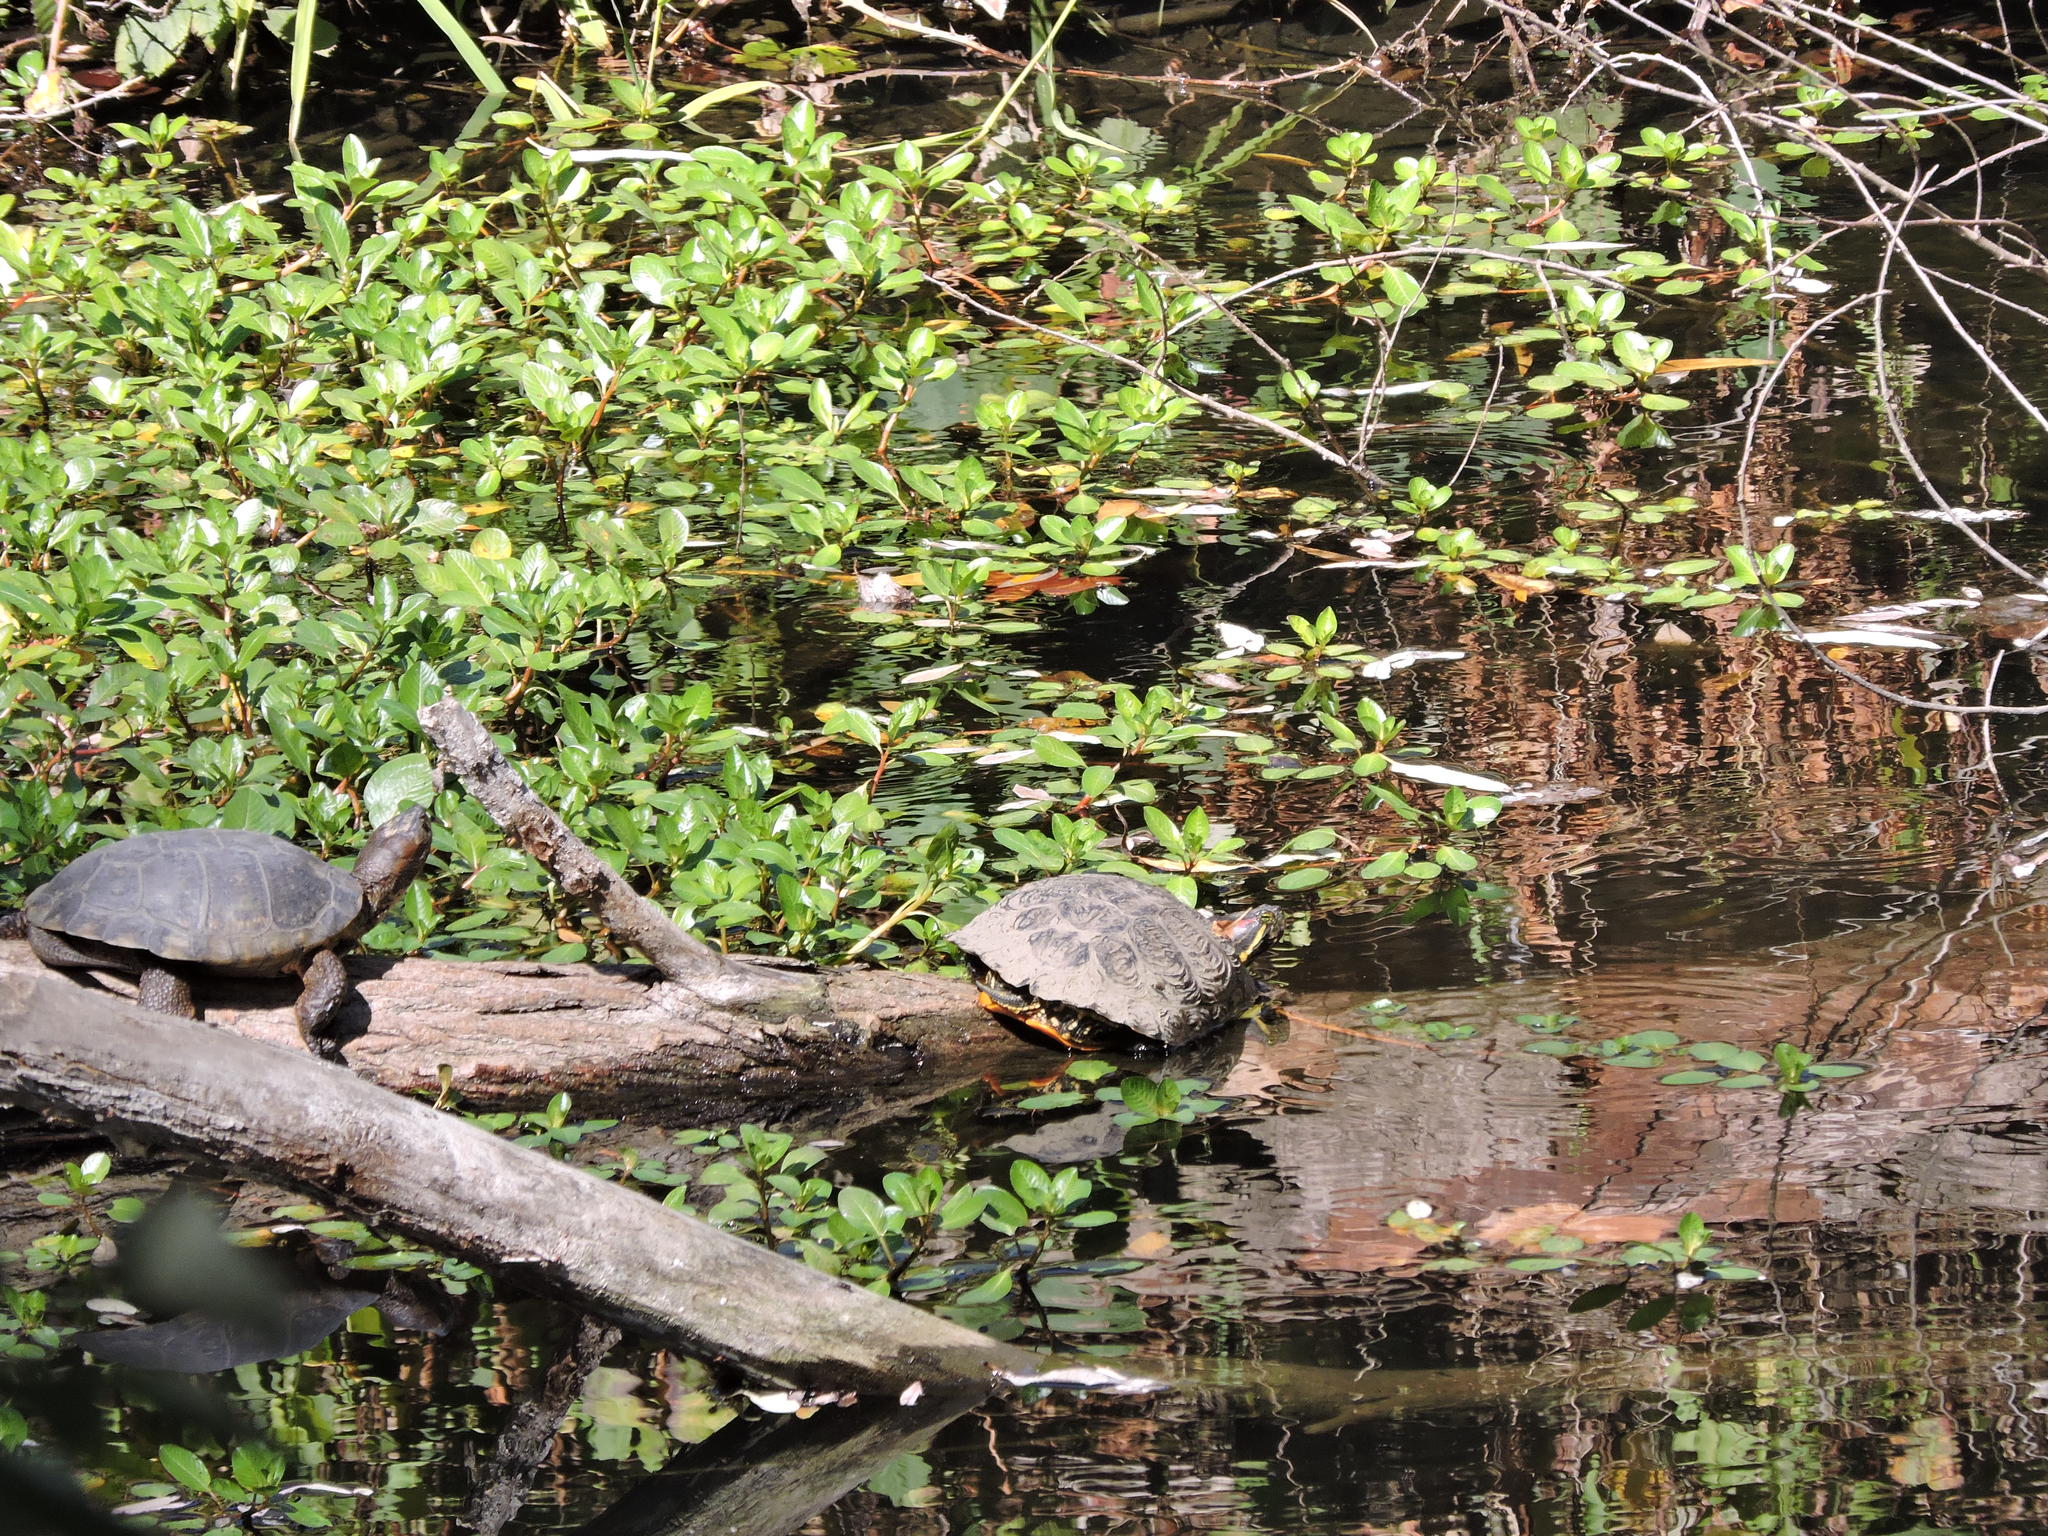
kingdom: Animalia
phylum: Chordata
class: Testudines
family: Emydidae
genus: Actinemys
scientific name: Actinemys marmorata
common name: Western pond turtle
